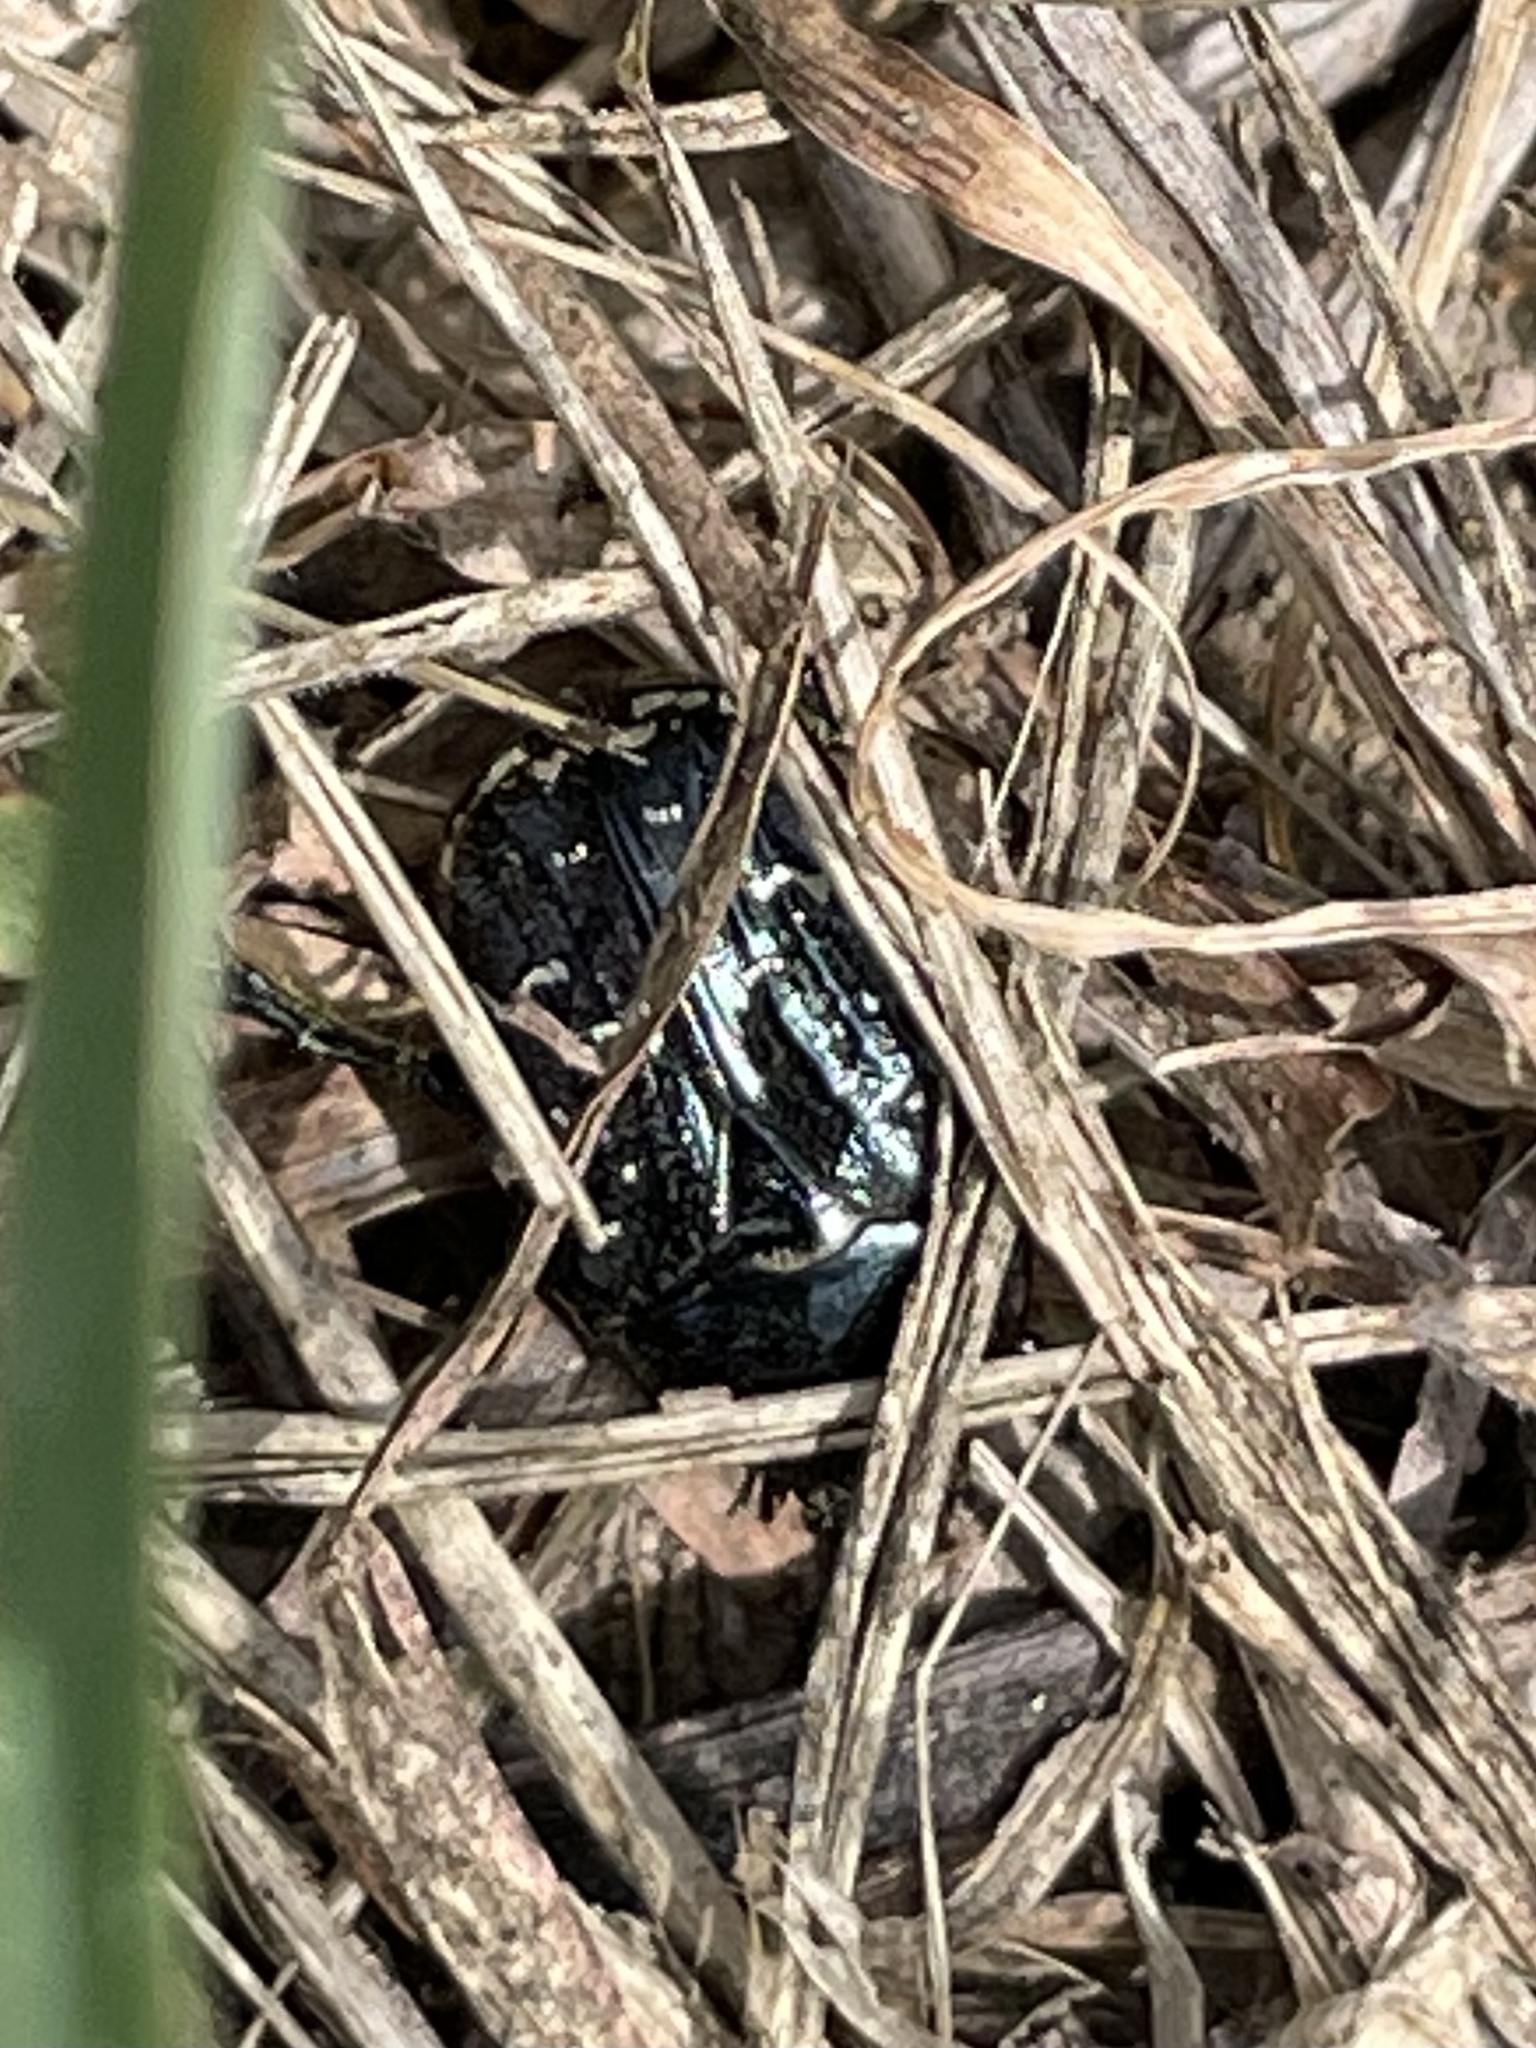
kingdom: Animalia
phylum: Arthropoda
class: Insecta
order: Coleoptera
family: Scarabaeidae
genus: Euphoria
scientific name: Euphoria sepulcralis
